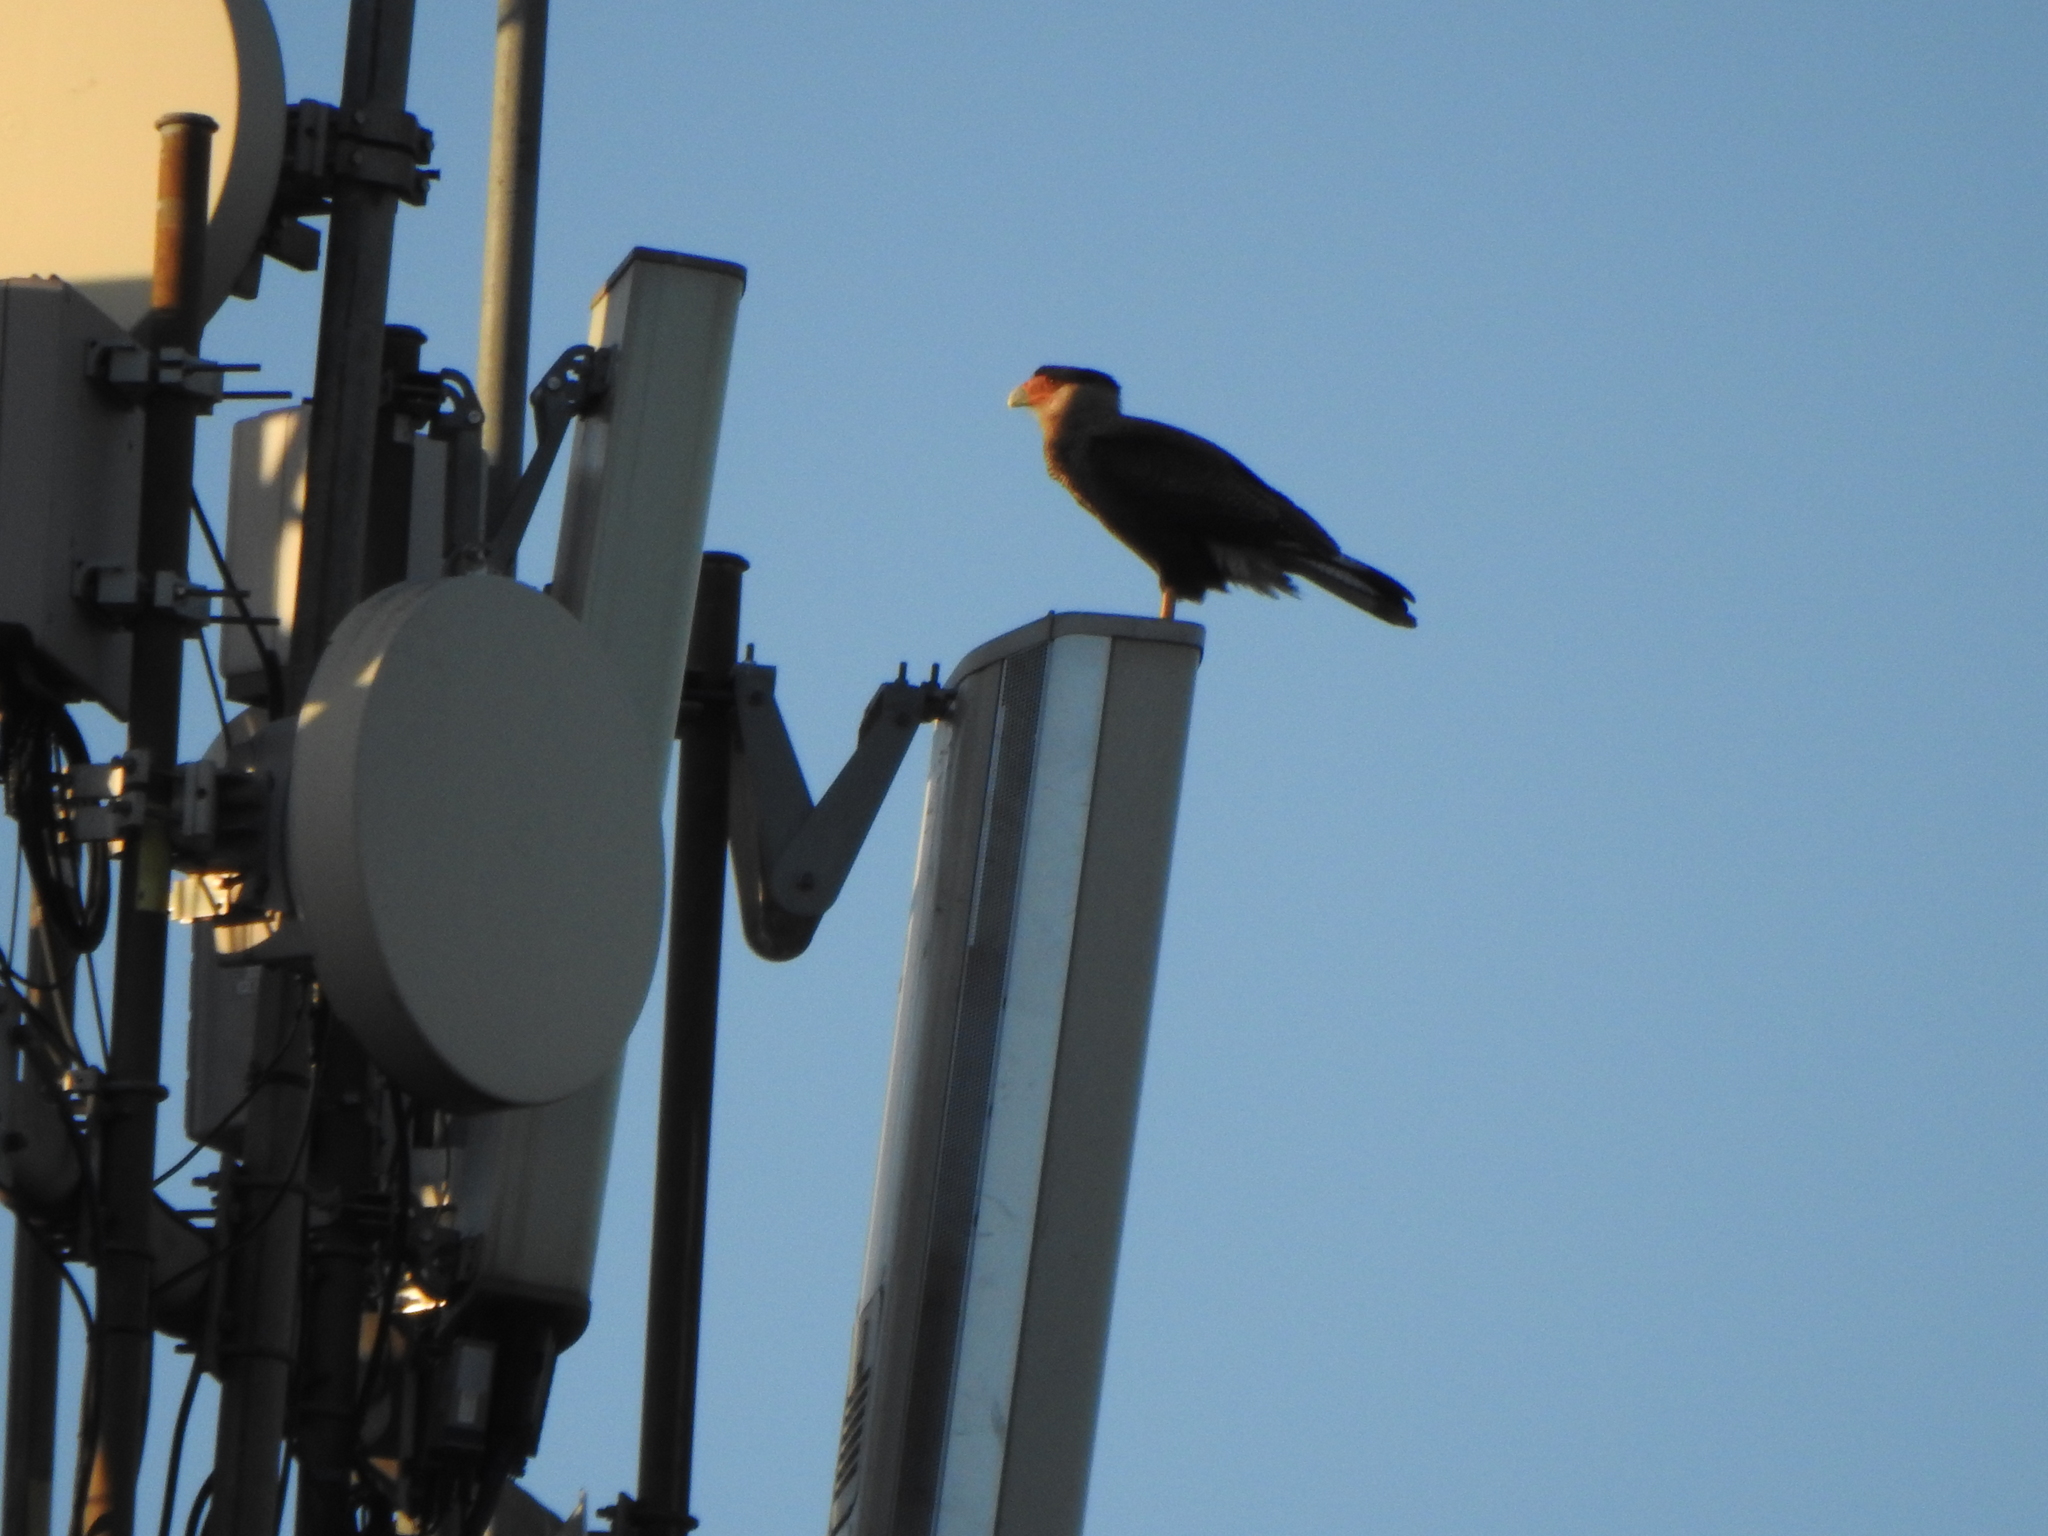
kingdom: Animalia
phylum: Chordata
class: Aves
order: Falconiformes
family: Falconidae
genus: Caracara
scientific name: Caracara plancus
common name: Southern caracara
